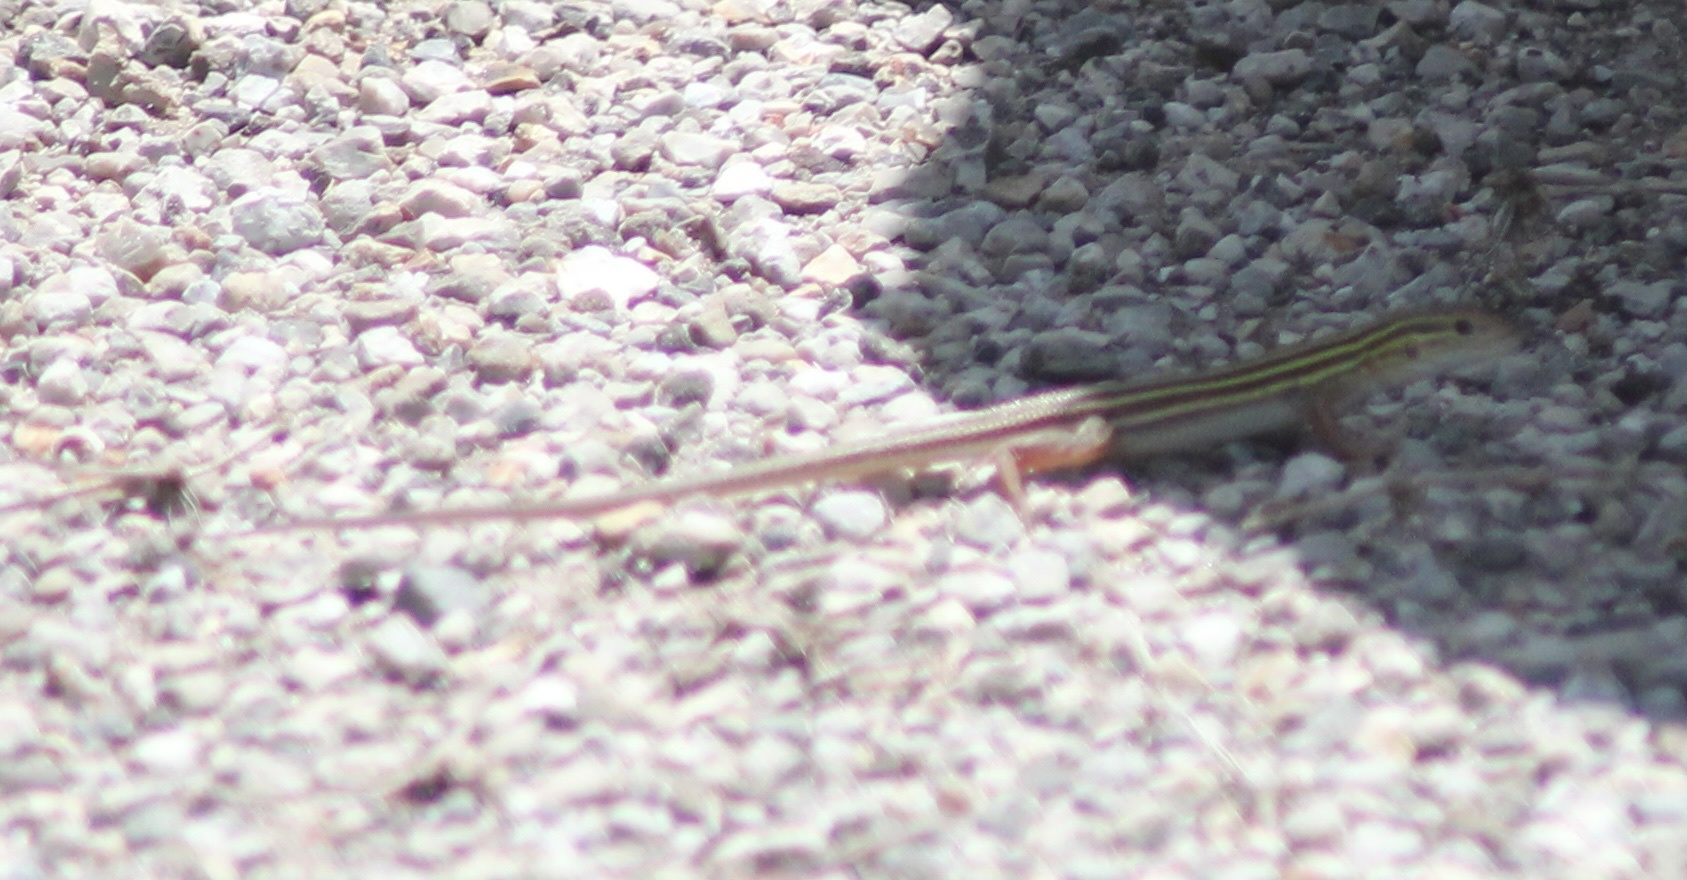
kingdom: Animalia
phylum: Chordata
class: Squamata
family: Teiidae
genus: Aspidoscelis
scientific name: Aspidoscelis sexlineatus
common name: Six-lined racerunner
